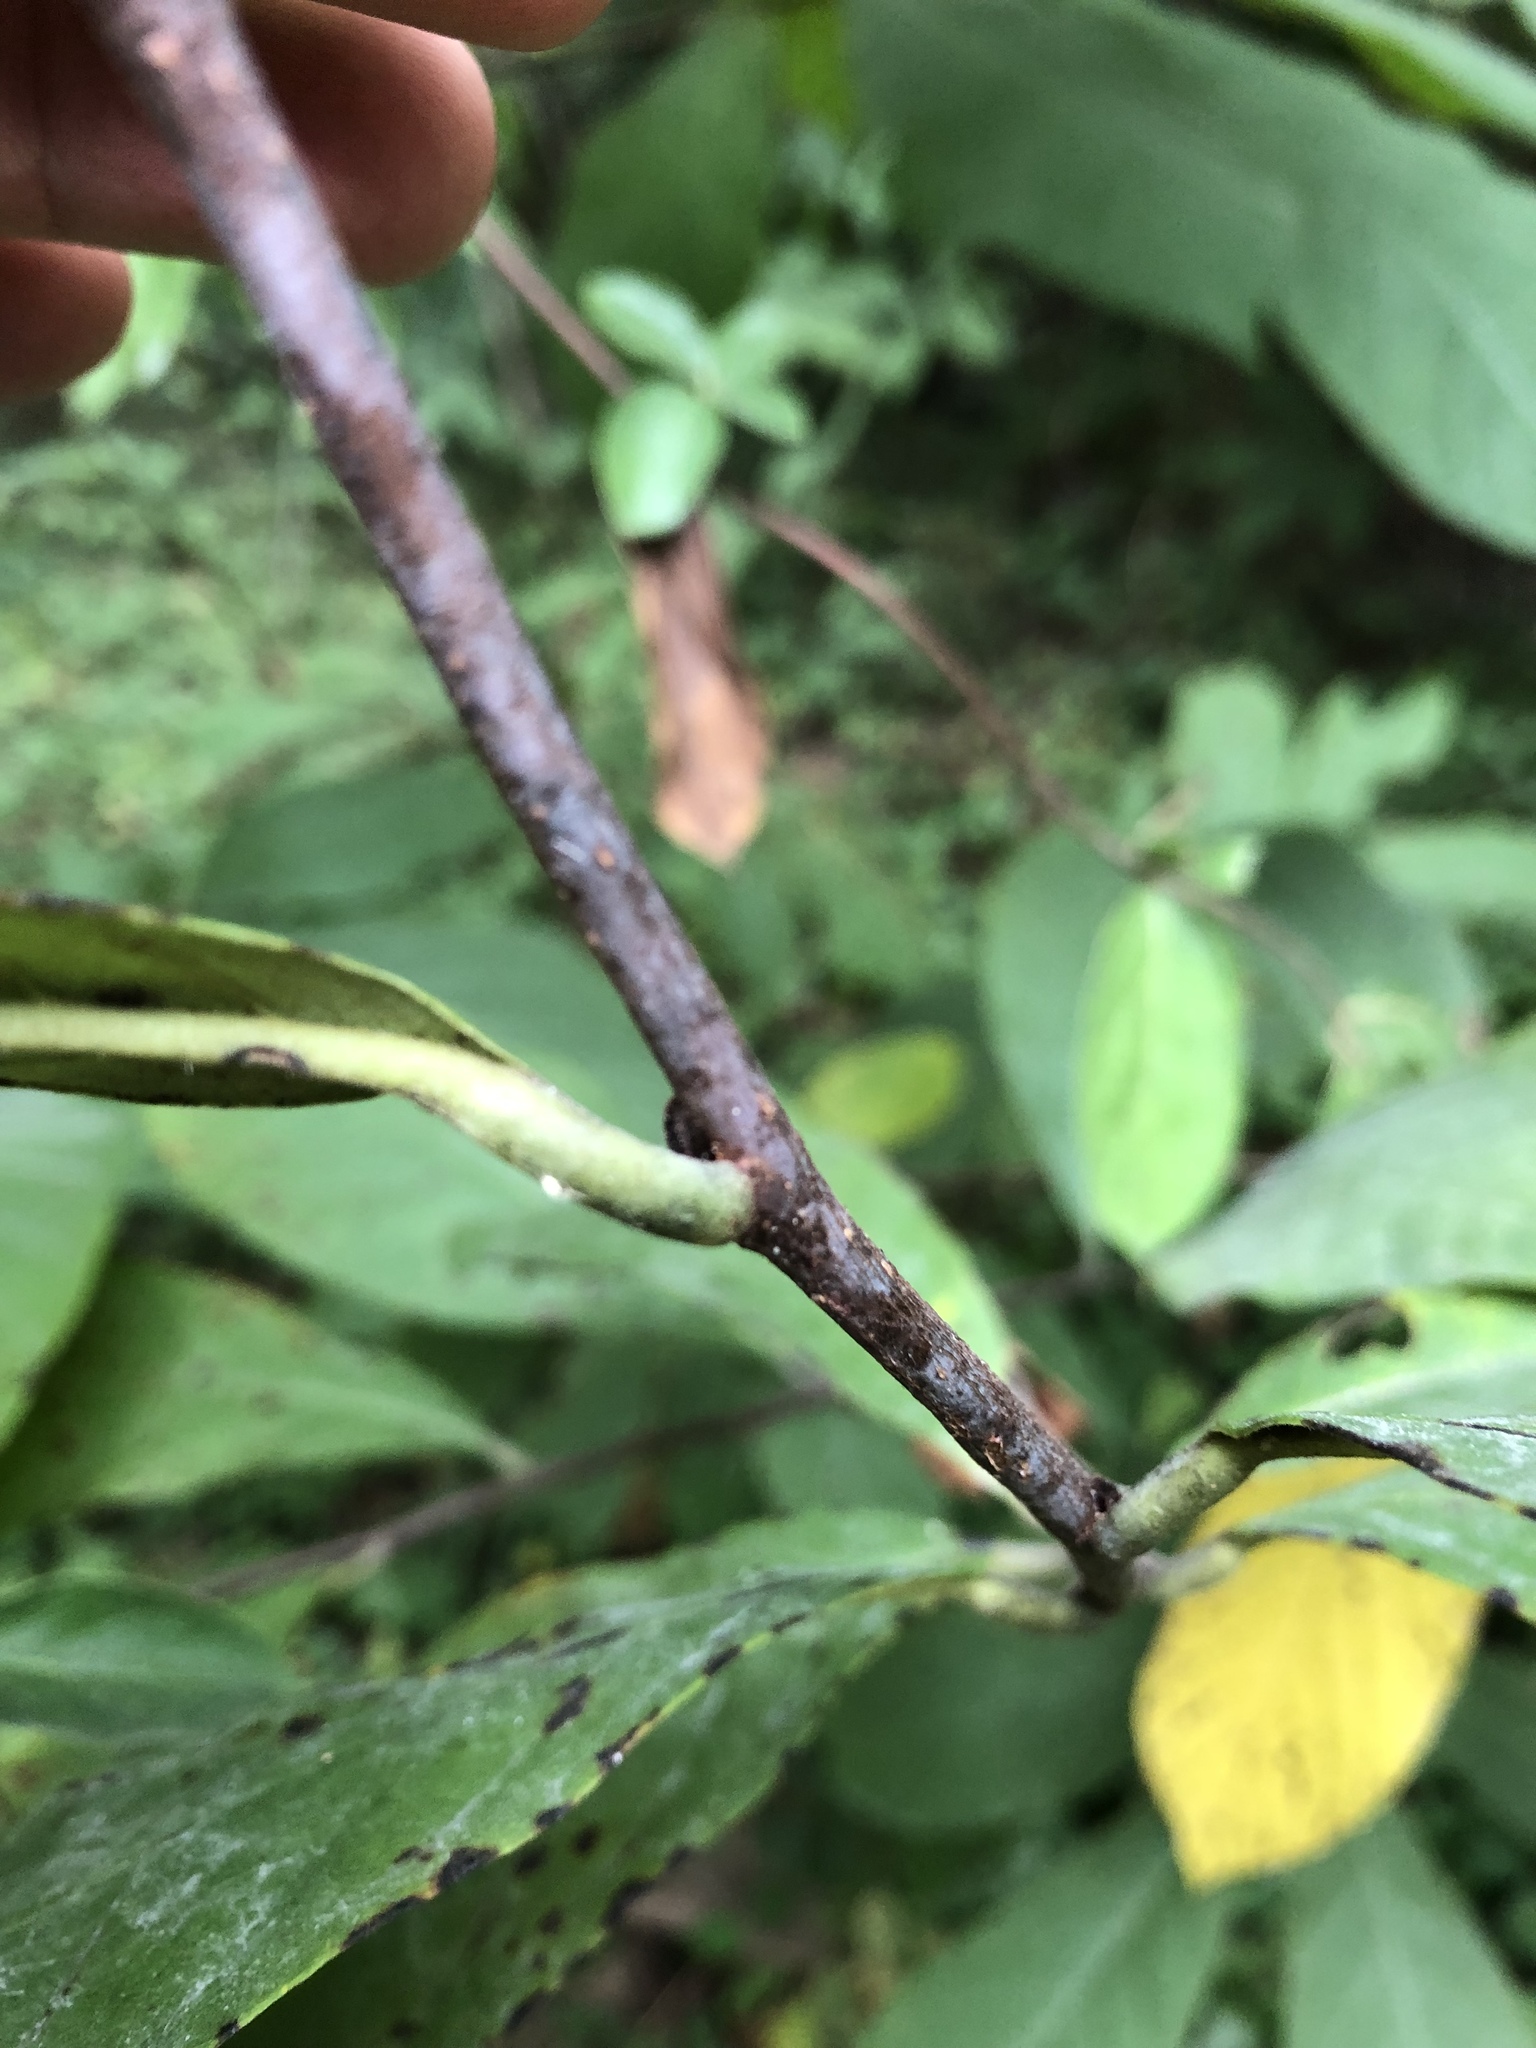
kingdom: Plantae
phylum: Tracheophyta
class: Magnoliopsida
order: Magnoliales
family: Annonaceae
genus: Asimina
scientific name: Asimina triloba
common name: Dog-banana
